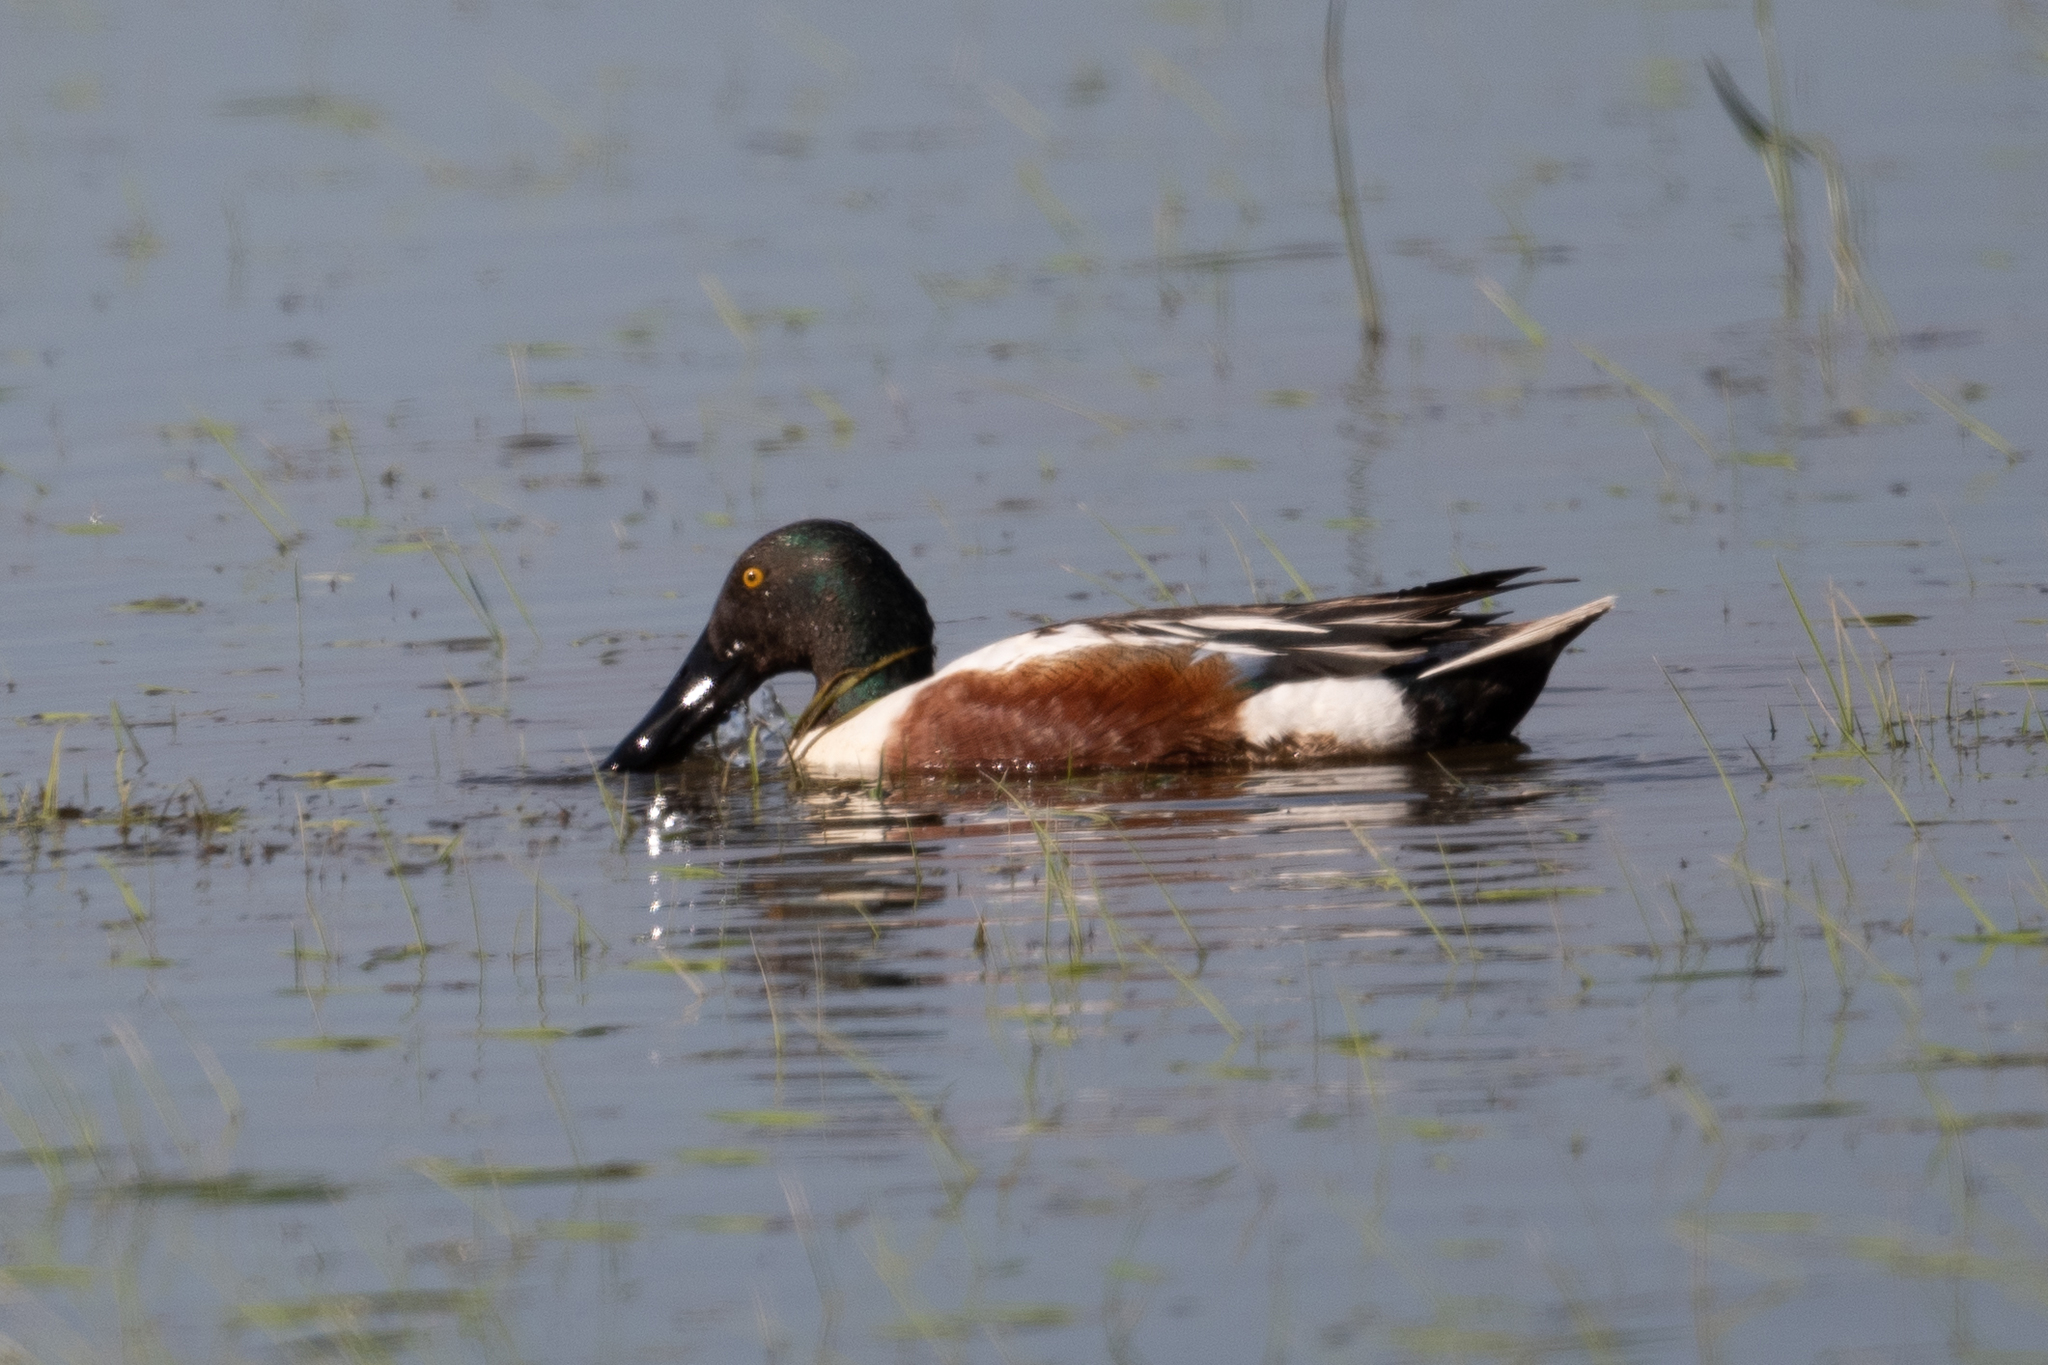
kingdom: Animalia
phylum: Chordata
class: Aves
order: Anseriformes
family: Anatidae
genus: Spatula
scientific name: Spatula clypeata
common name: Northern shoveler
